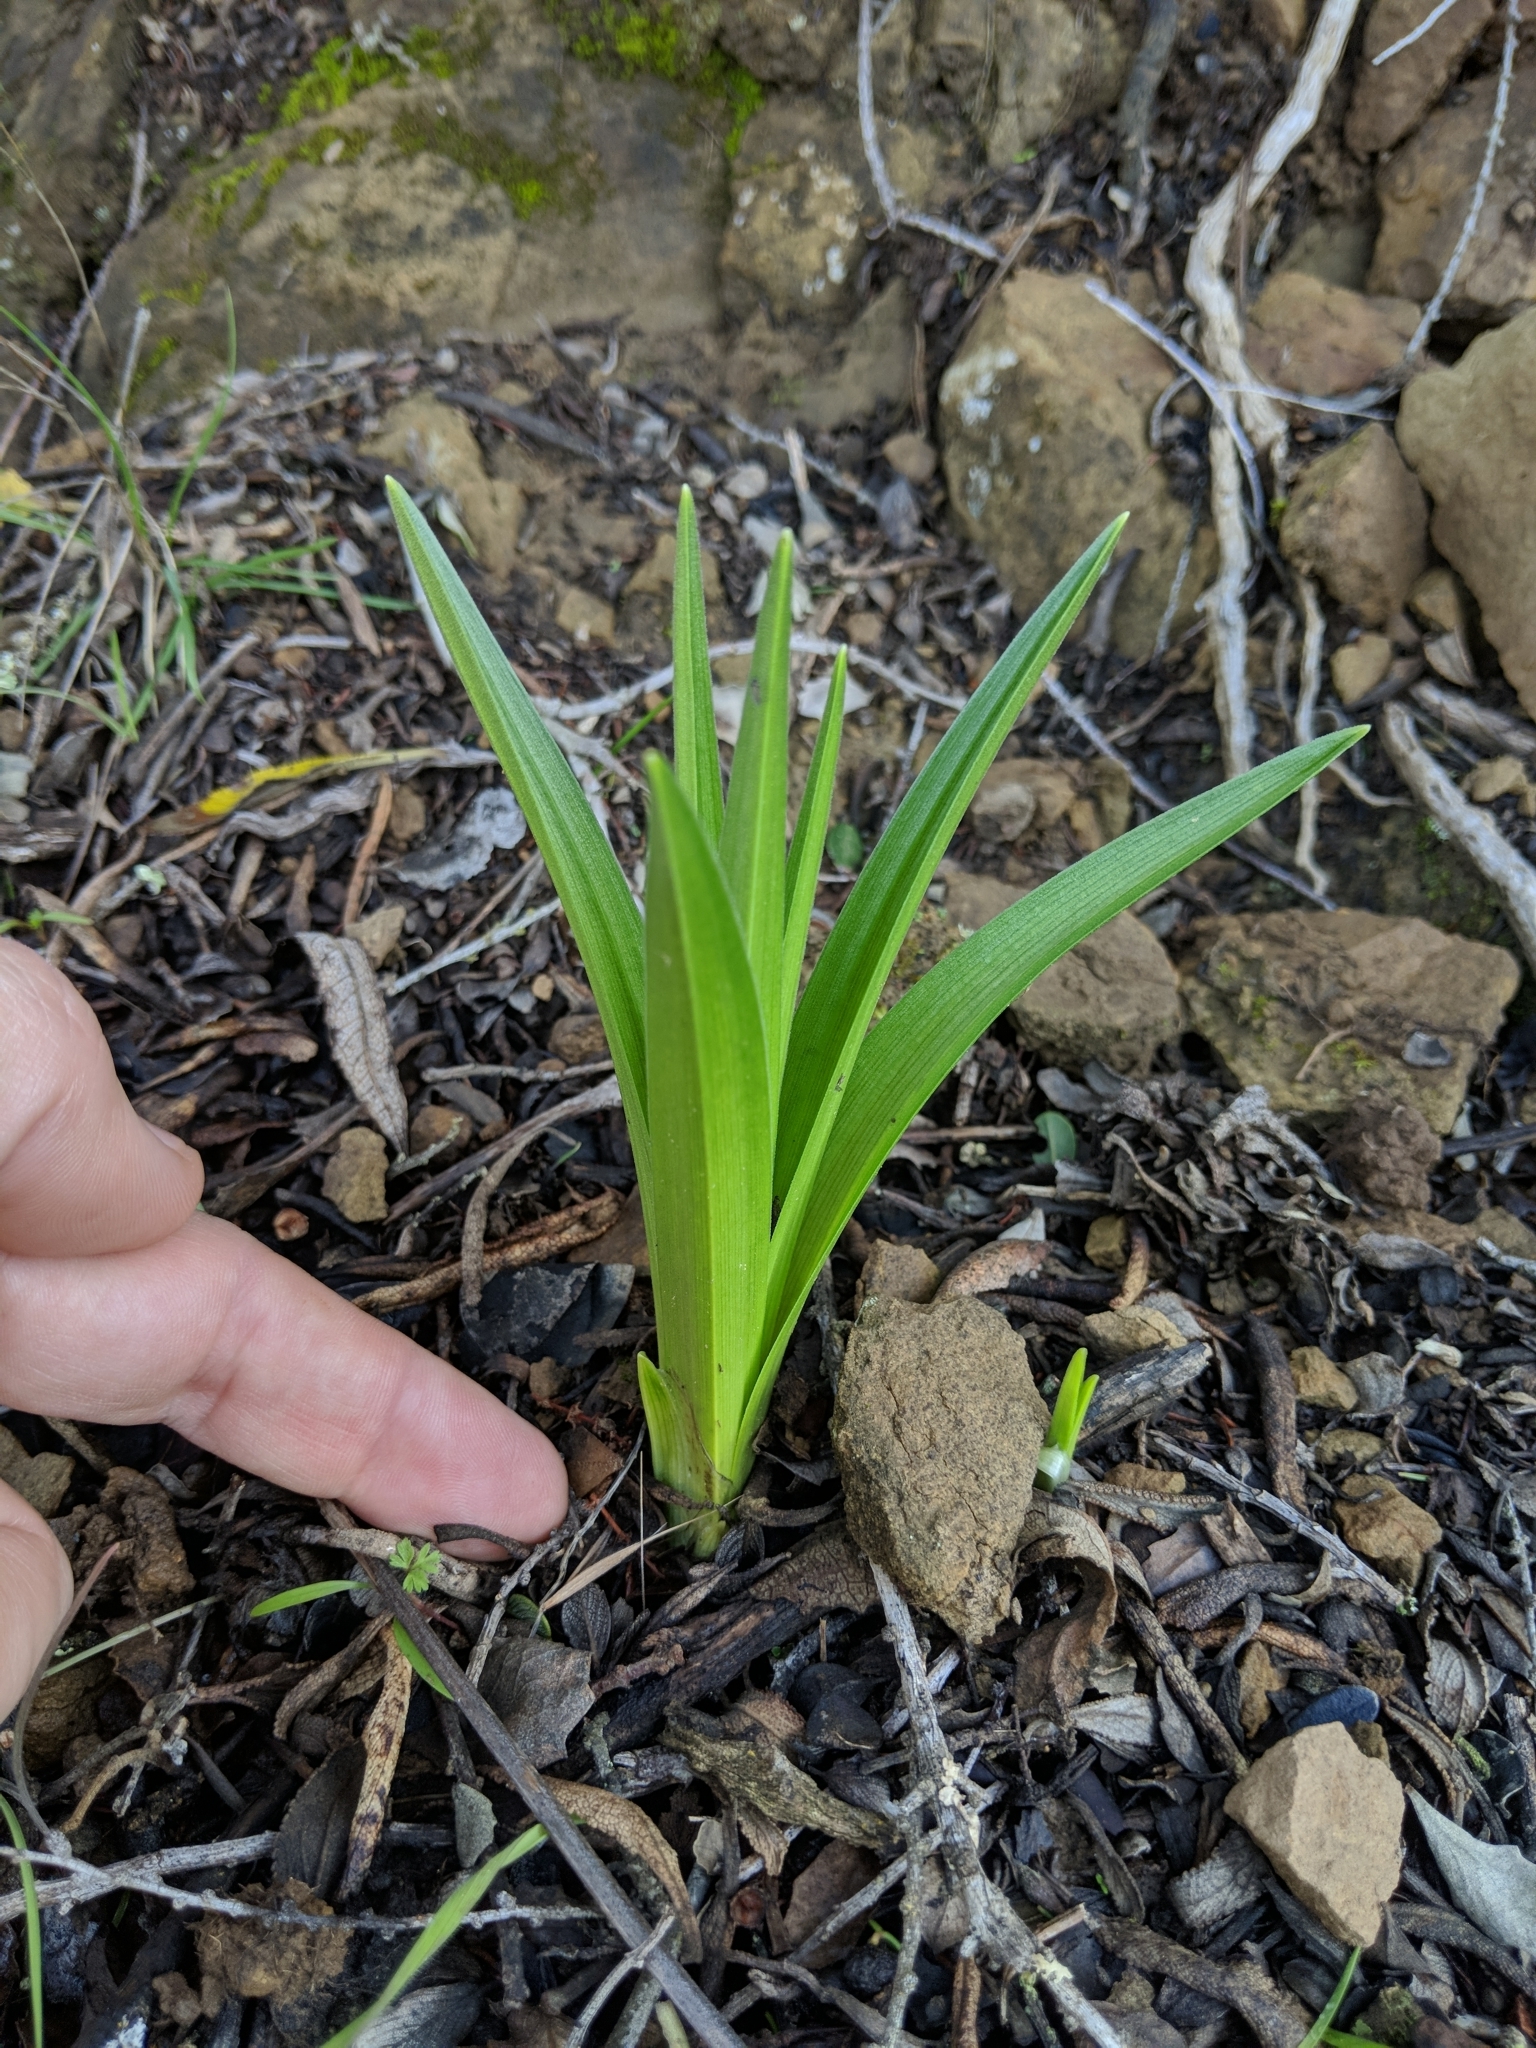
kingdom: Plantae
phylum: Tracheophyta
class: Liliopsida
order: Liliales
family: Melanthiaceae
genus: Toxicoscordion
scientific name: Toxicoscordion fremontii
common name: Fremont's death camas
